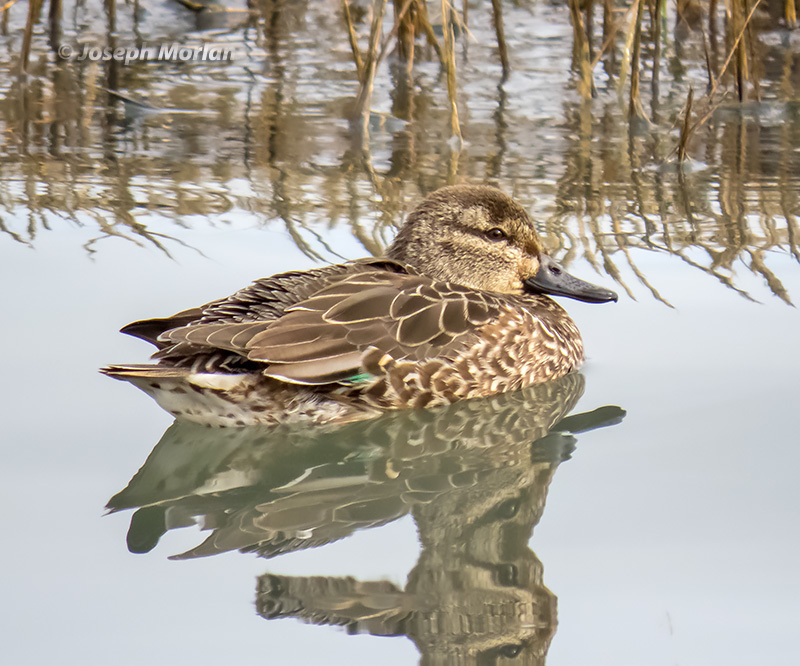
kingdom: Animalia
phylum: Chordata
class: Aves
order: Anseriformes
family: Anatidae
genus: Anas
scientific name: Anas crecca
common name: Eurasian teal
